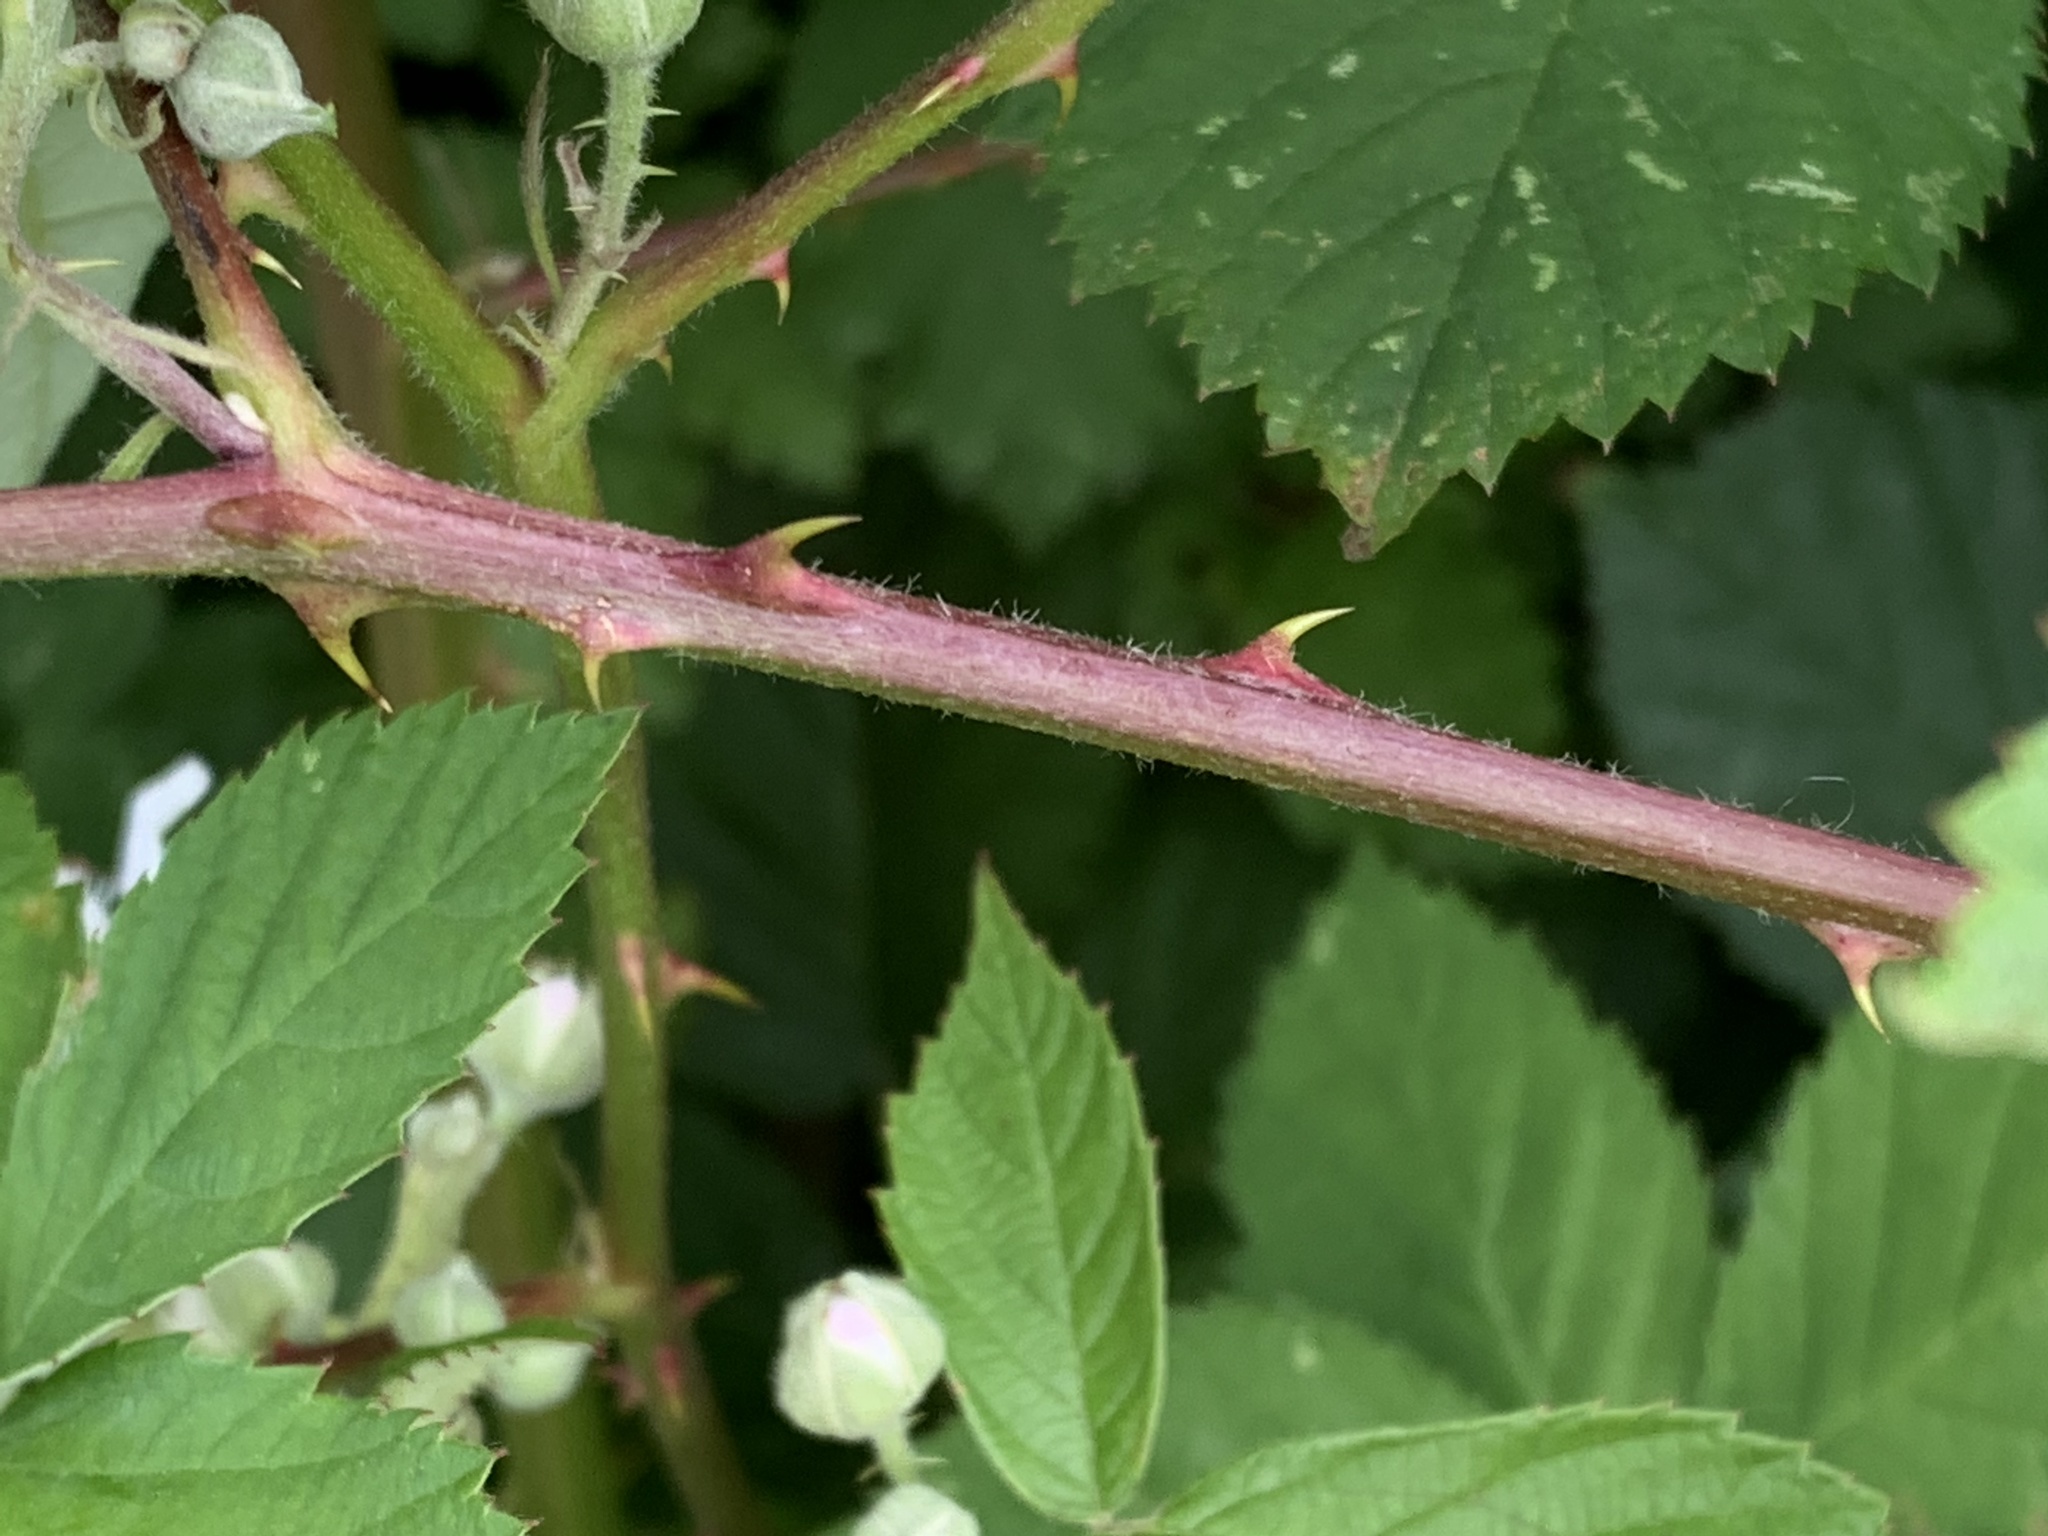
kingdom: Plantae
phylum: Tracheophyta
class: Magnoliopsida
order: Rosales
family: Rosaceae
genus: Rubus
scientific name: Rubus praecox
